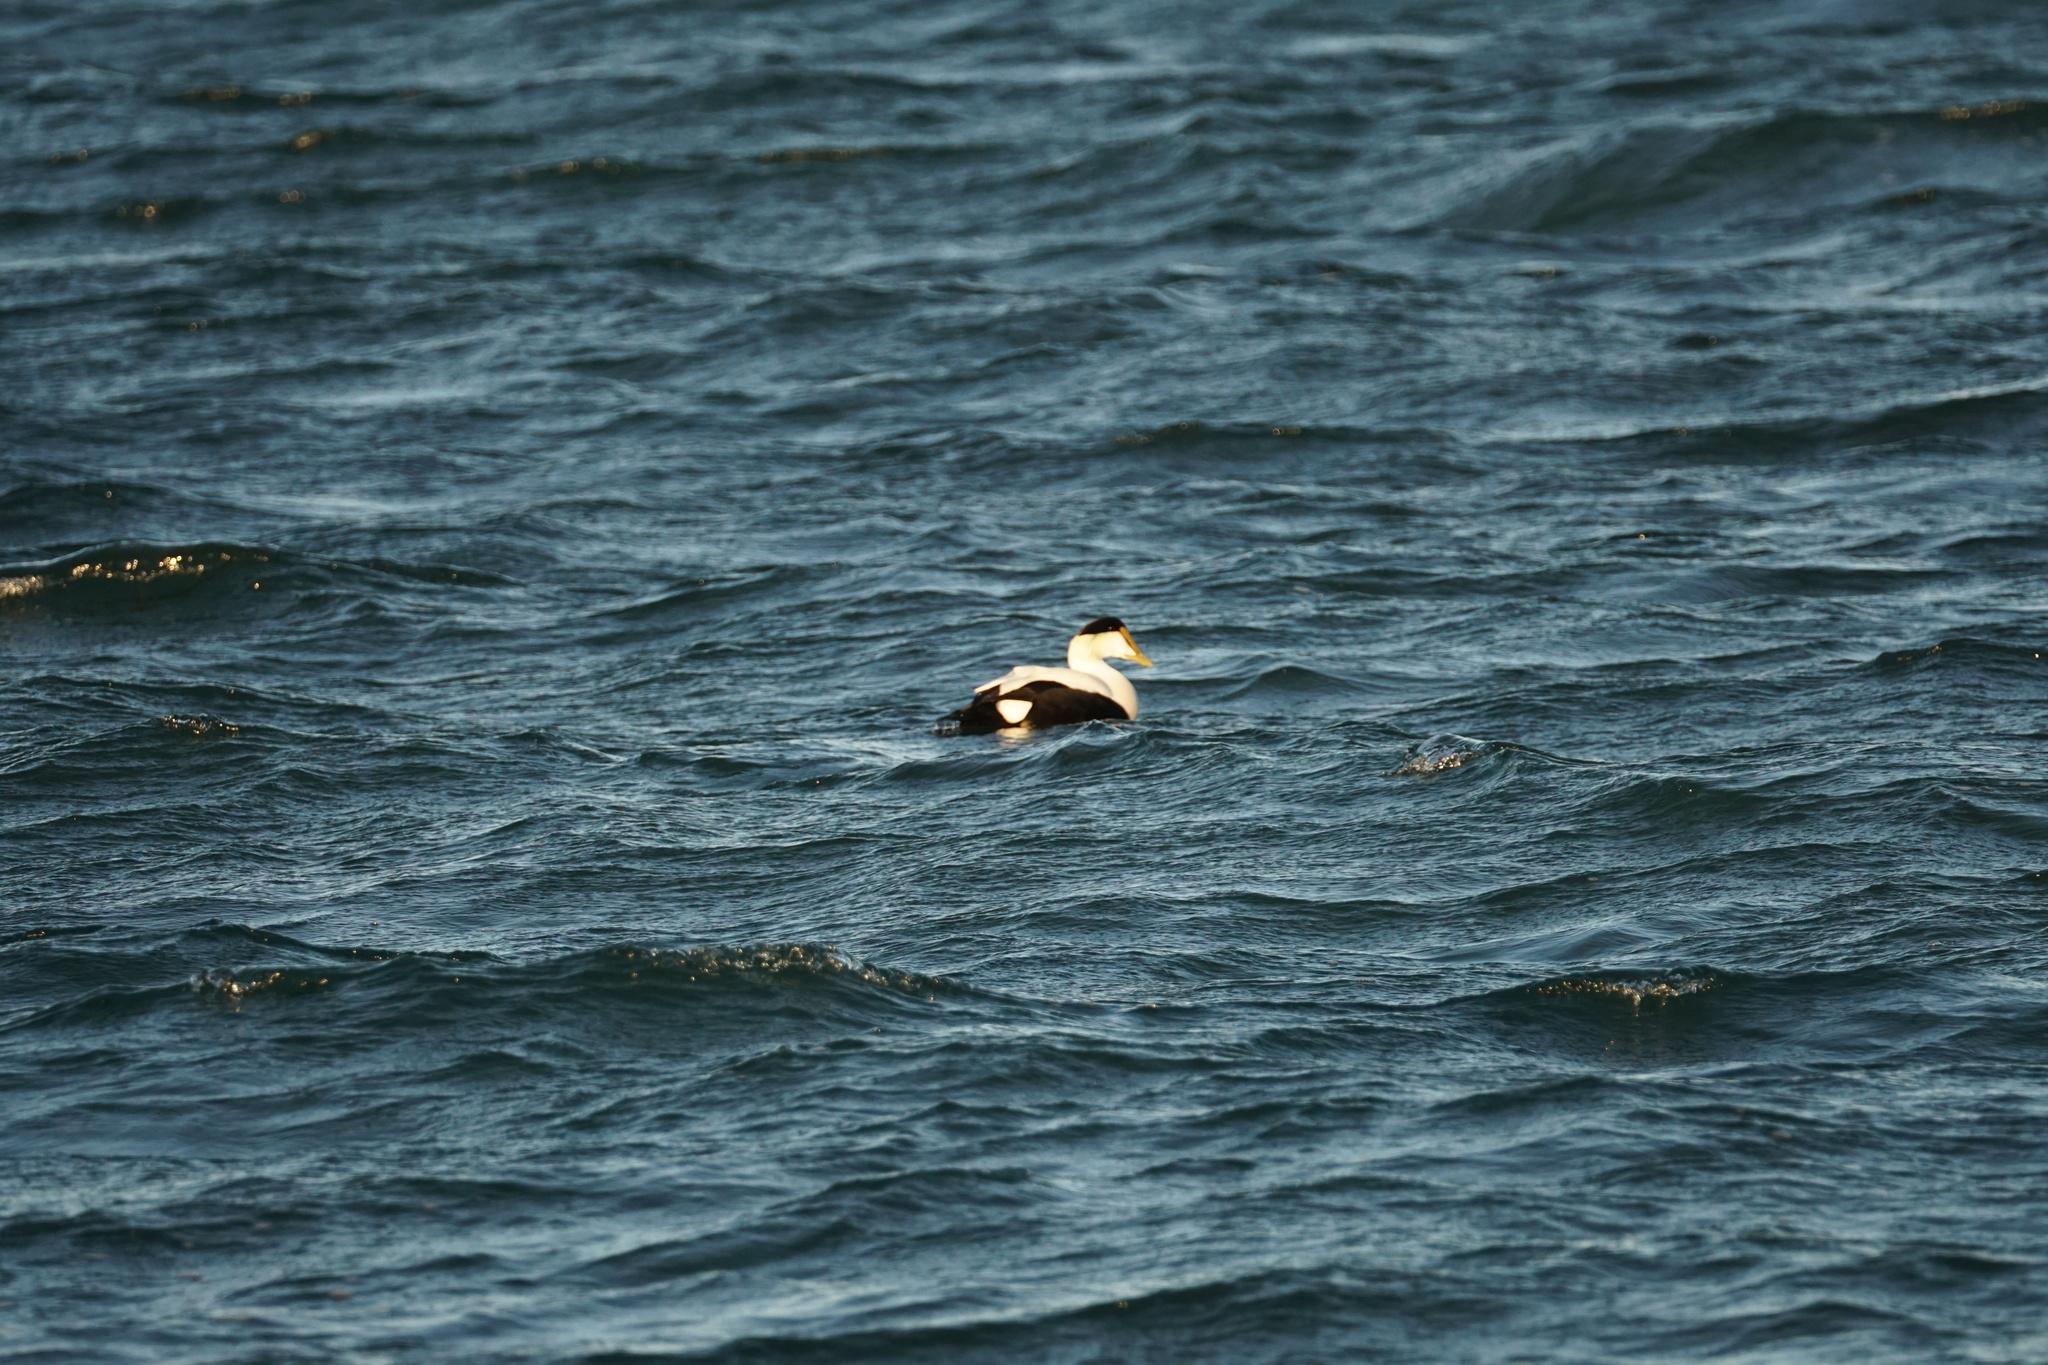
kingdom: Animalia
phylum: Chordata
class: Aves
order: Anseriformes
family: Anatidae
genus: Somateria
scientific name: Somateria mollissima
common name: Common eider
